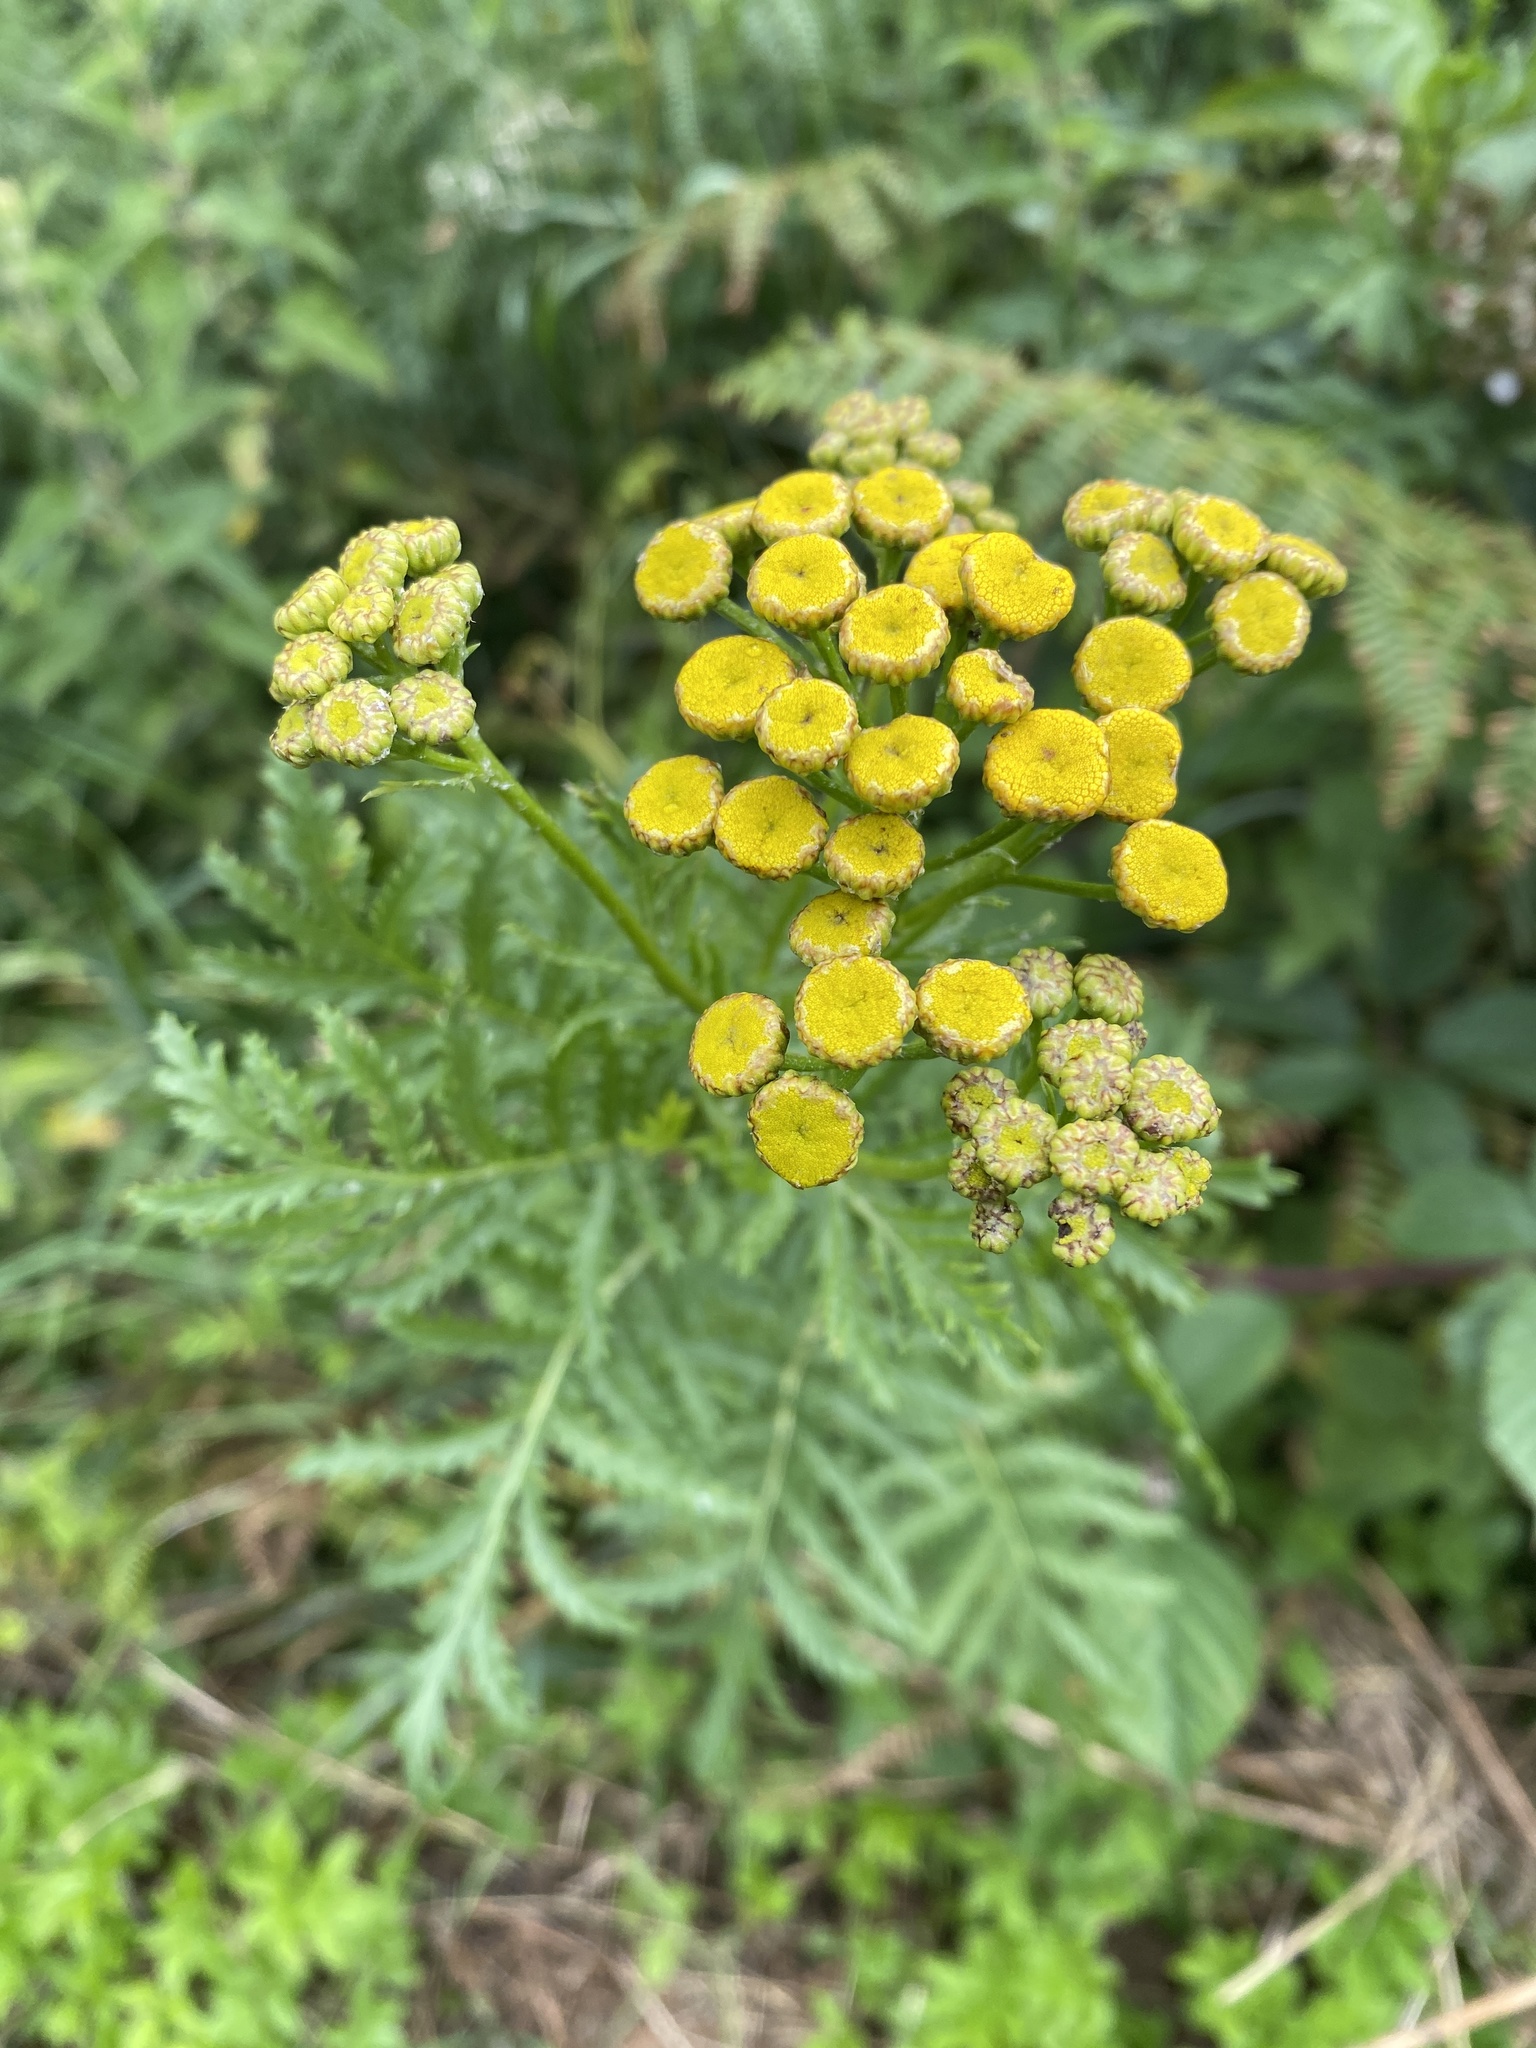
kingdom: Plantae
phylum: Tracheophyta
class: Magnoliopsida
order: Asterales
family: Asteraceae
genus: Tanacetum
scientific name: Tanacetum vulgare
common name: Common tansy
